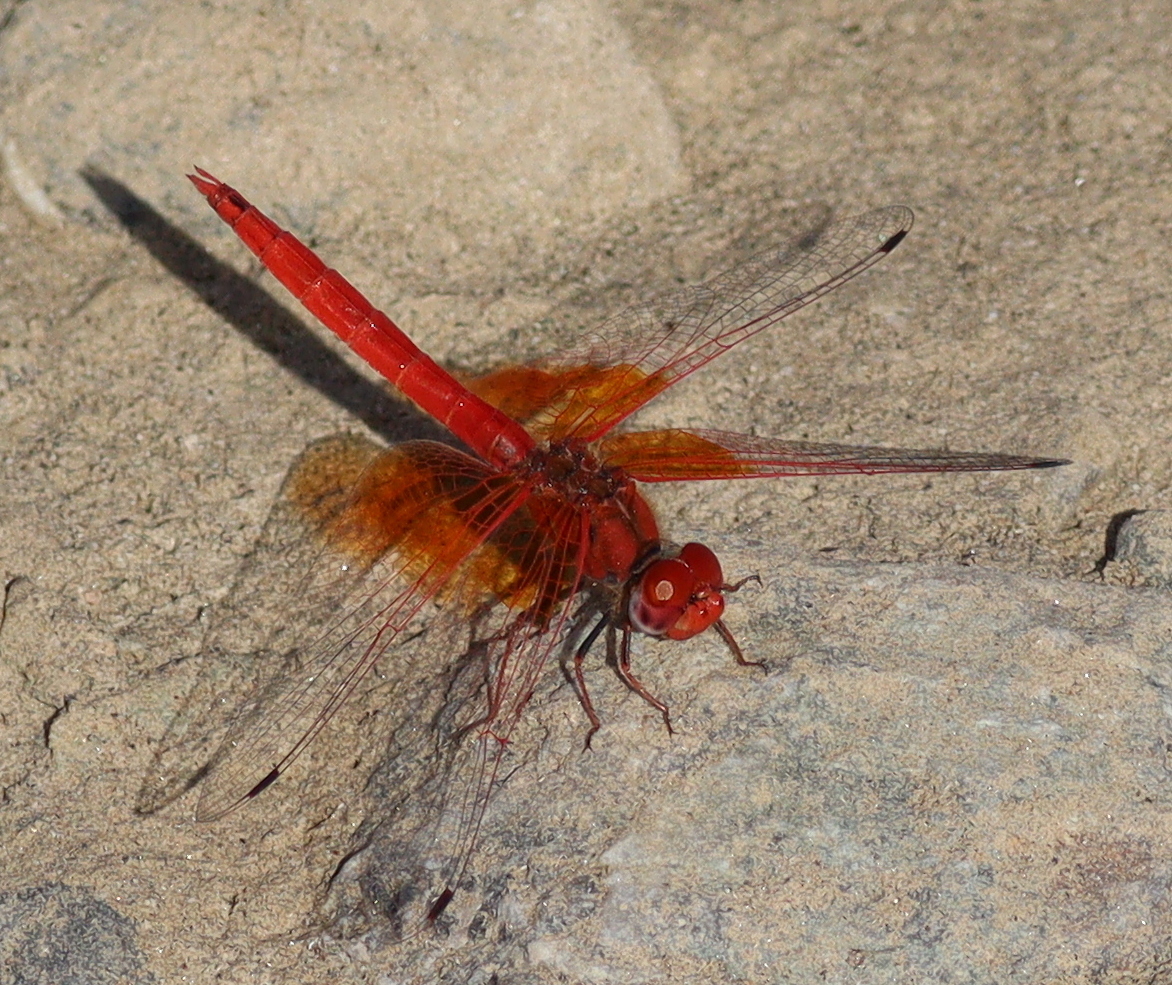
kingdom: Animalia
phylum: Arthropoda
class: Insecta
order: Odonata
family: Libellulidae
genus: Trithemis
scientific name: Trithemis kirbyi
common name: Kirby's dropwing
